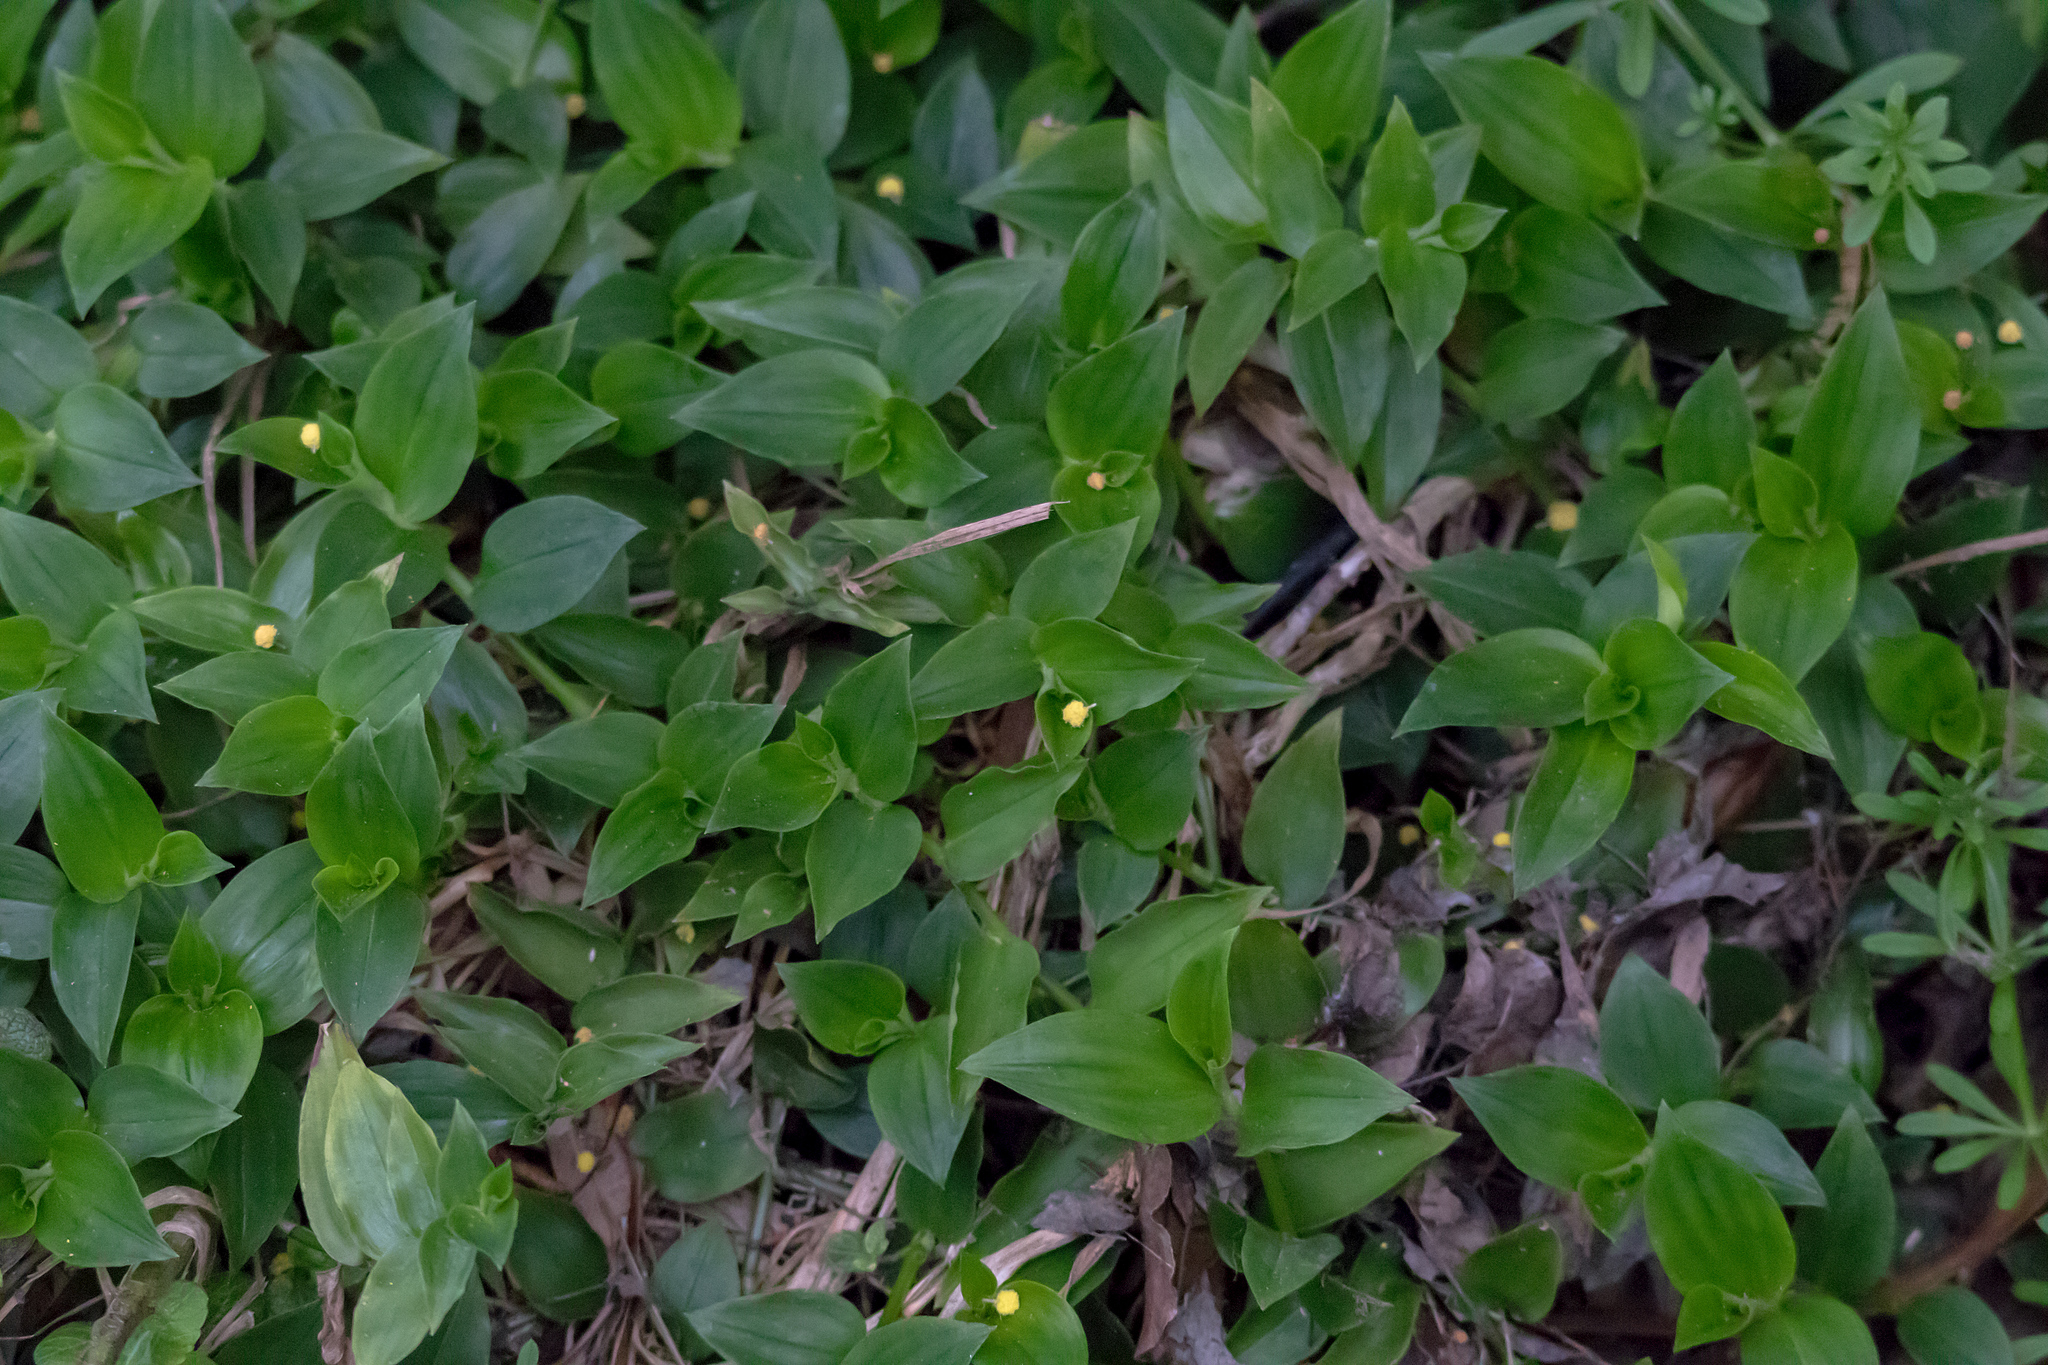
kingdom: Plantae
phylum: Tracheophyta
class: Liliopsida
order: Commelinales
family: Commelinaceae
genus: Tradescantia
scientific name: Tradescantia fluminensis
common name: Wandering-jew
